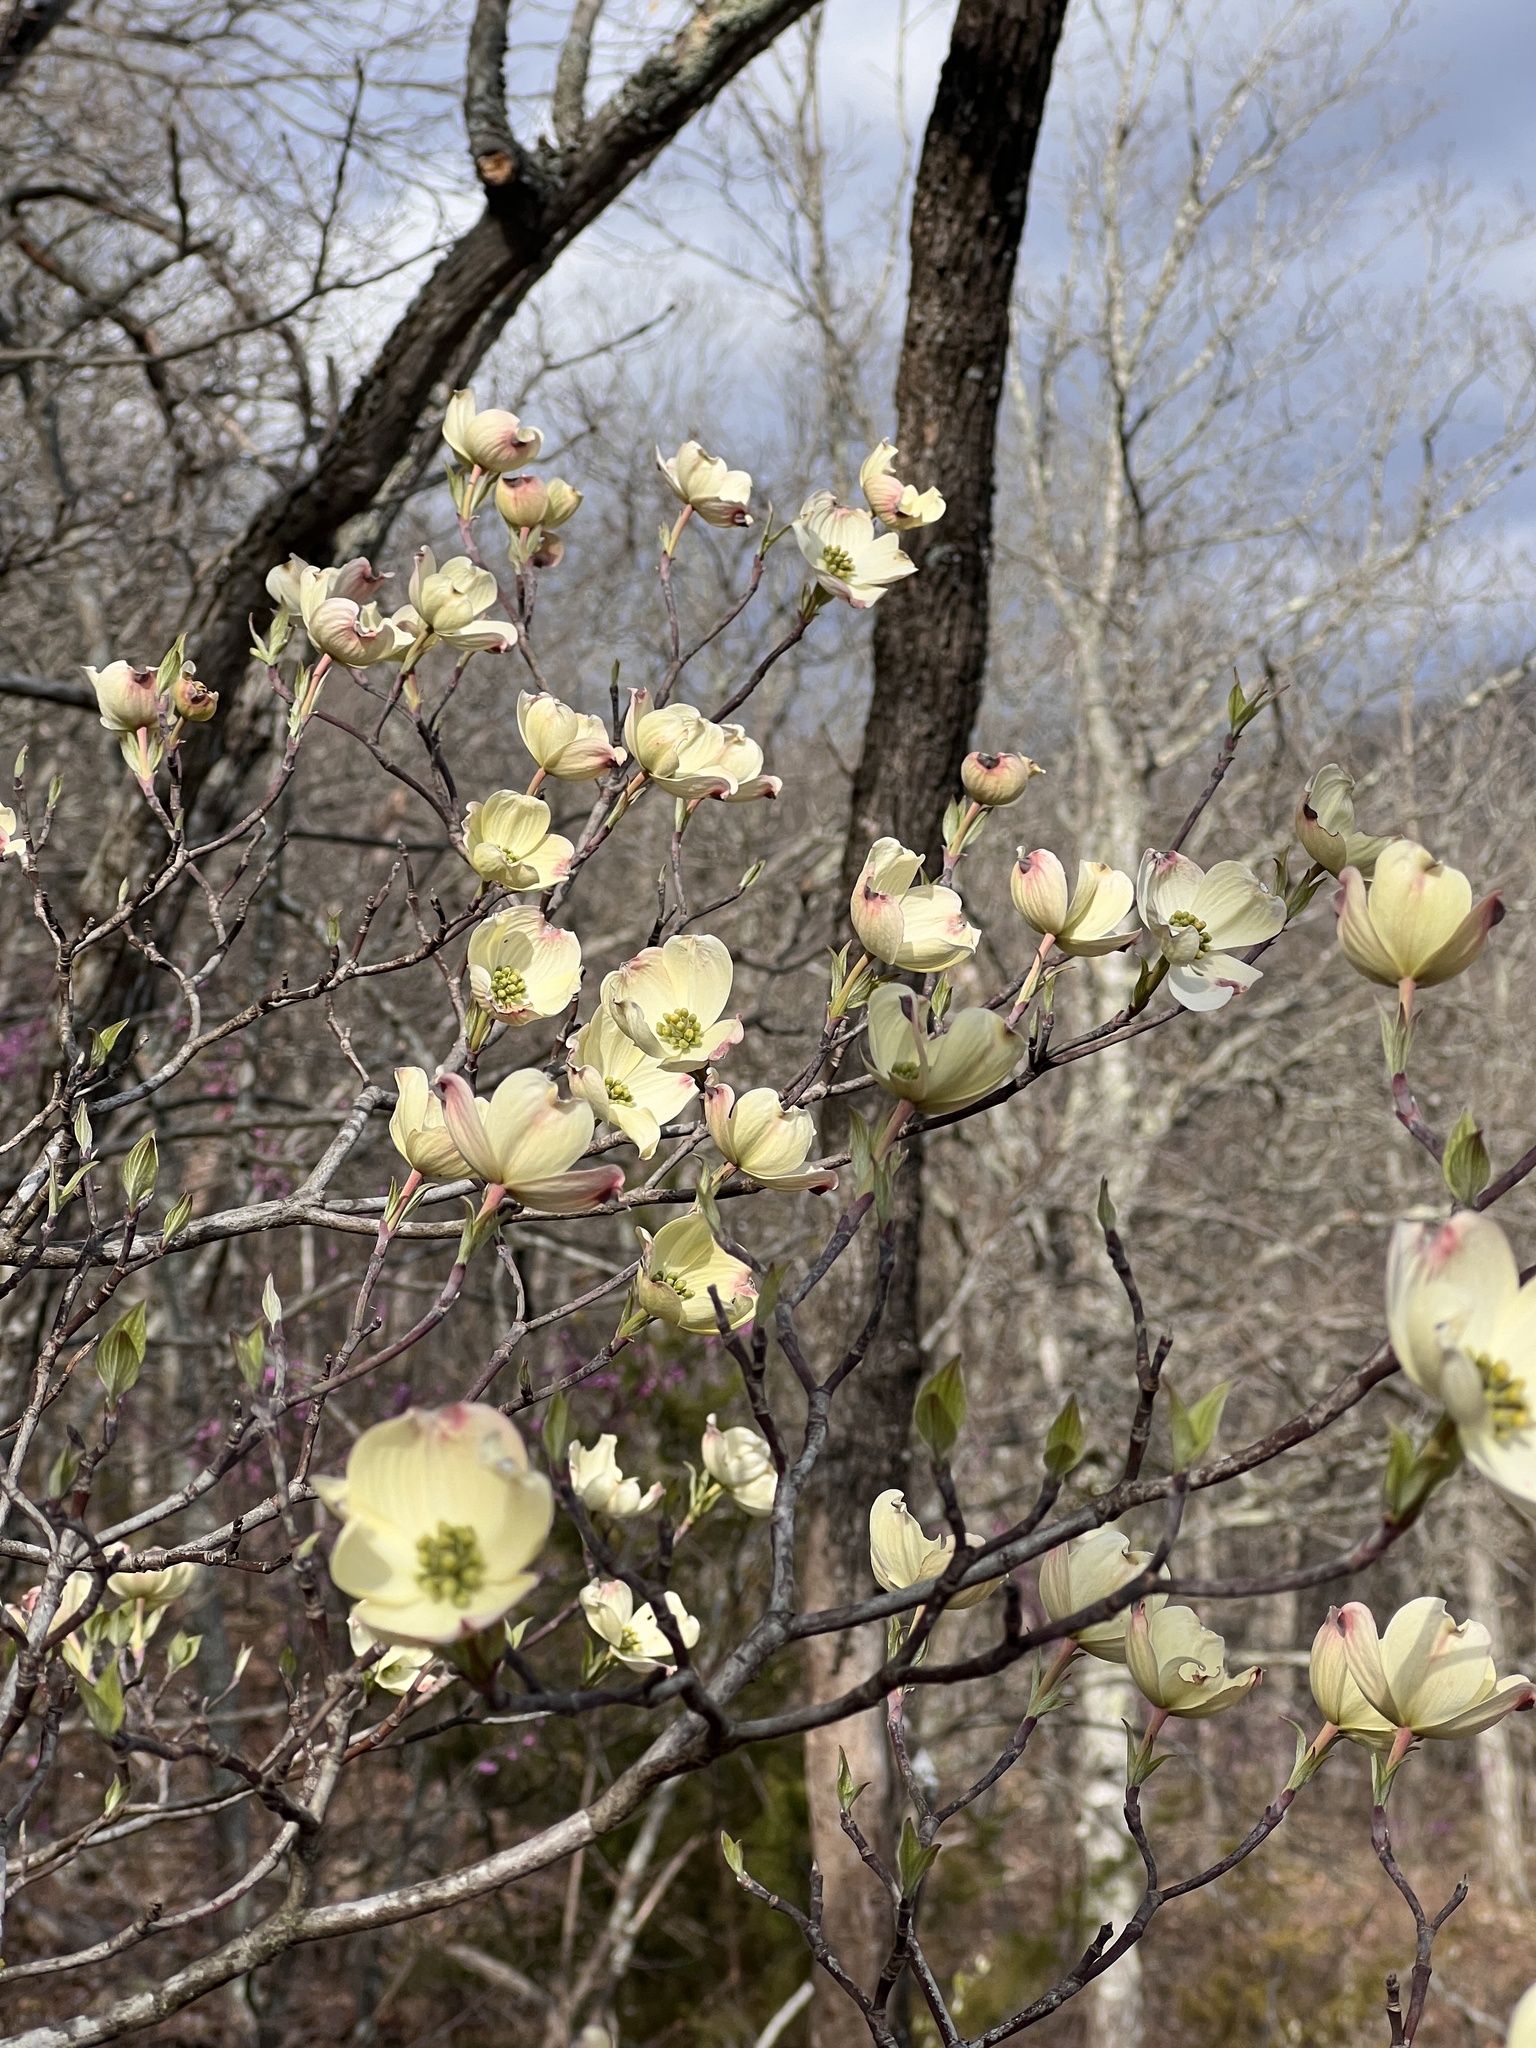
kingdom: Plantae
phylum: Tracheophyta
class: Magnoliopsida
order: Cornales
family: Cornaceae
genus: Cornus
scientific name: Cornus florida
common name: Flowering dogwood
